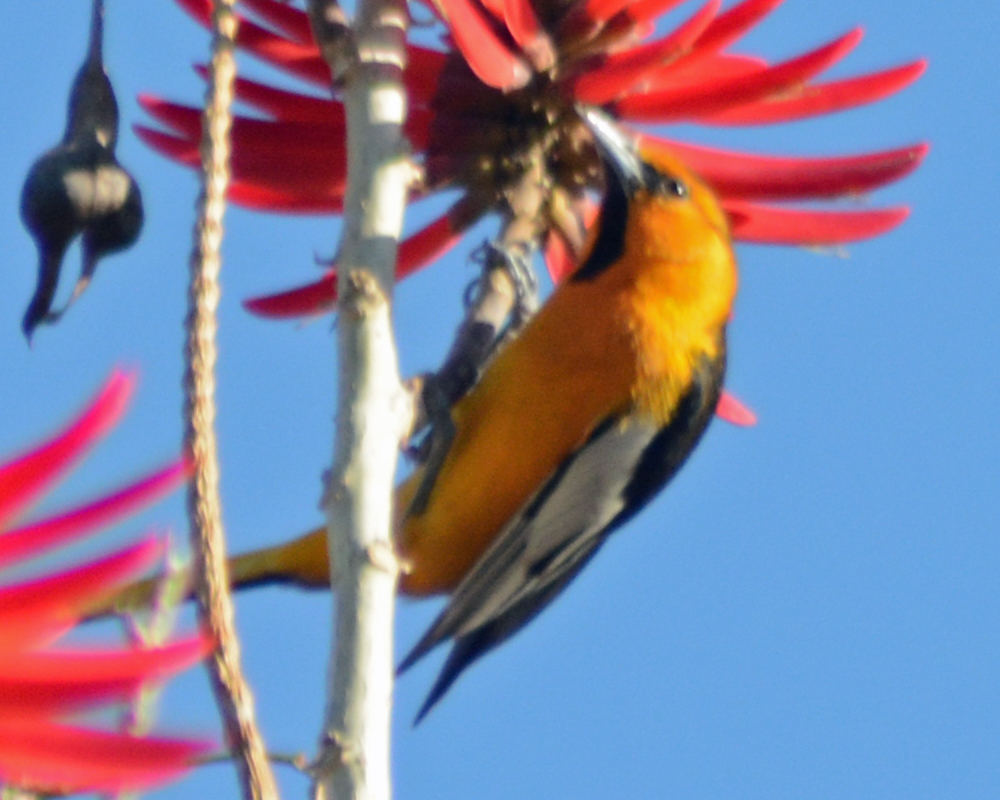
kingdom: Animalia
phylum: Chordata
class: Aves
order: Passeriformes
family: Icteridae
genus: Icterus
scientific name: Icterus bullockii
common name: Bullock's oriole
